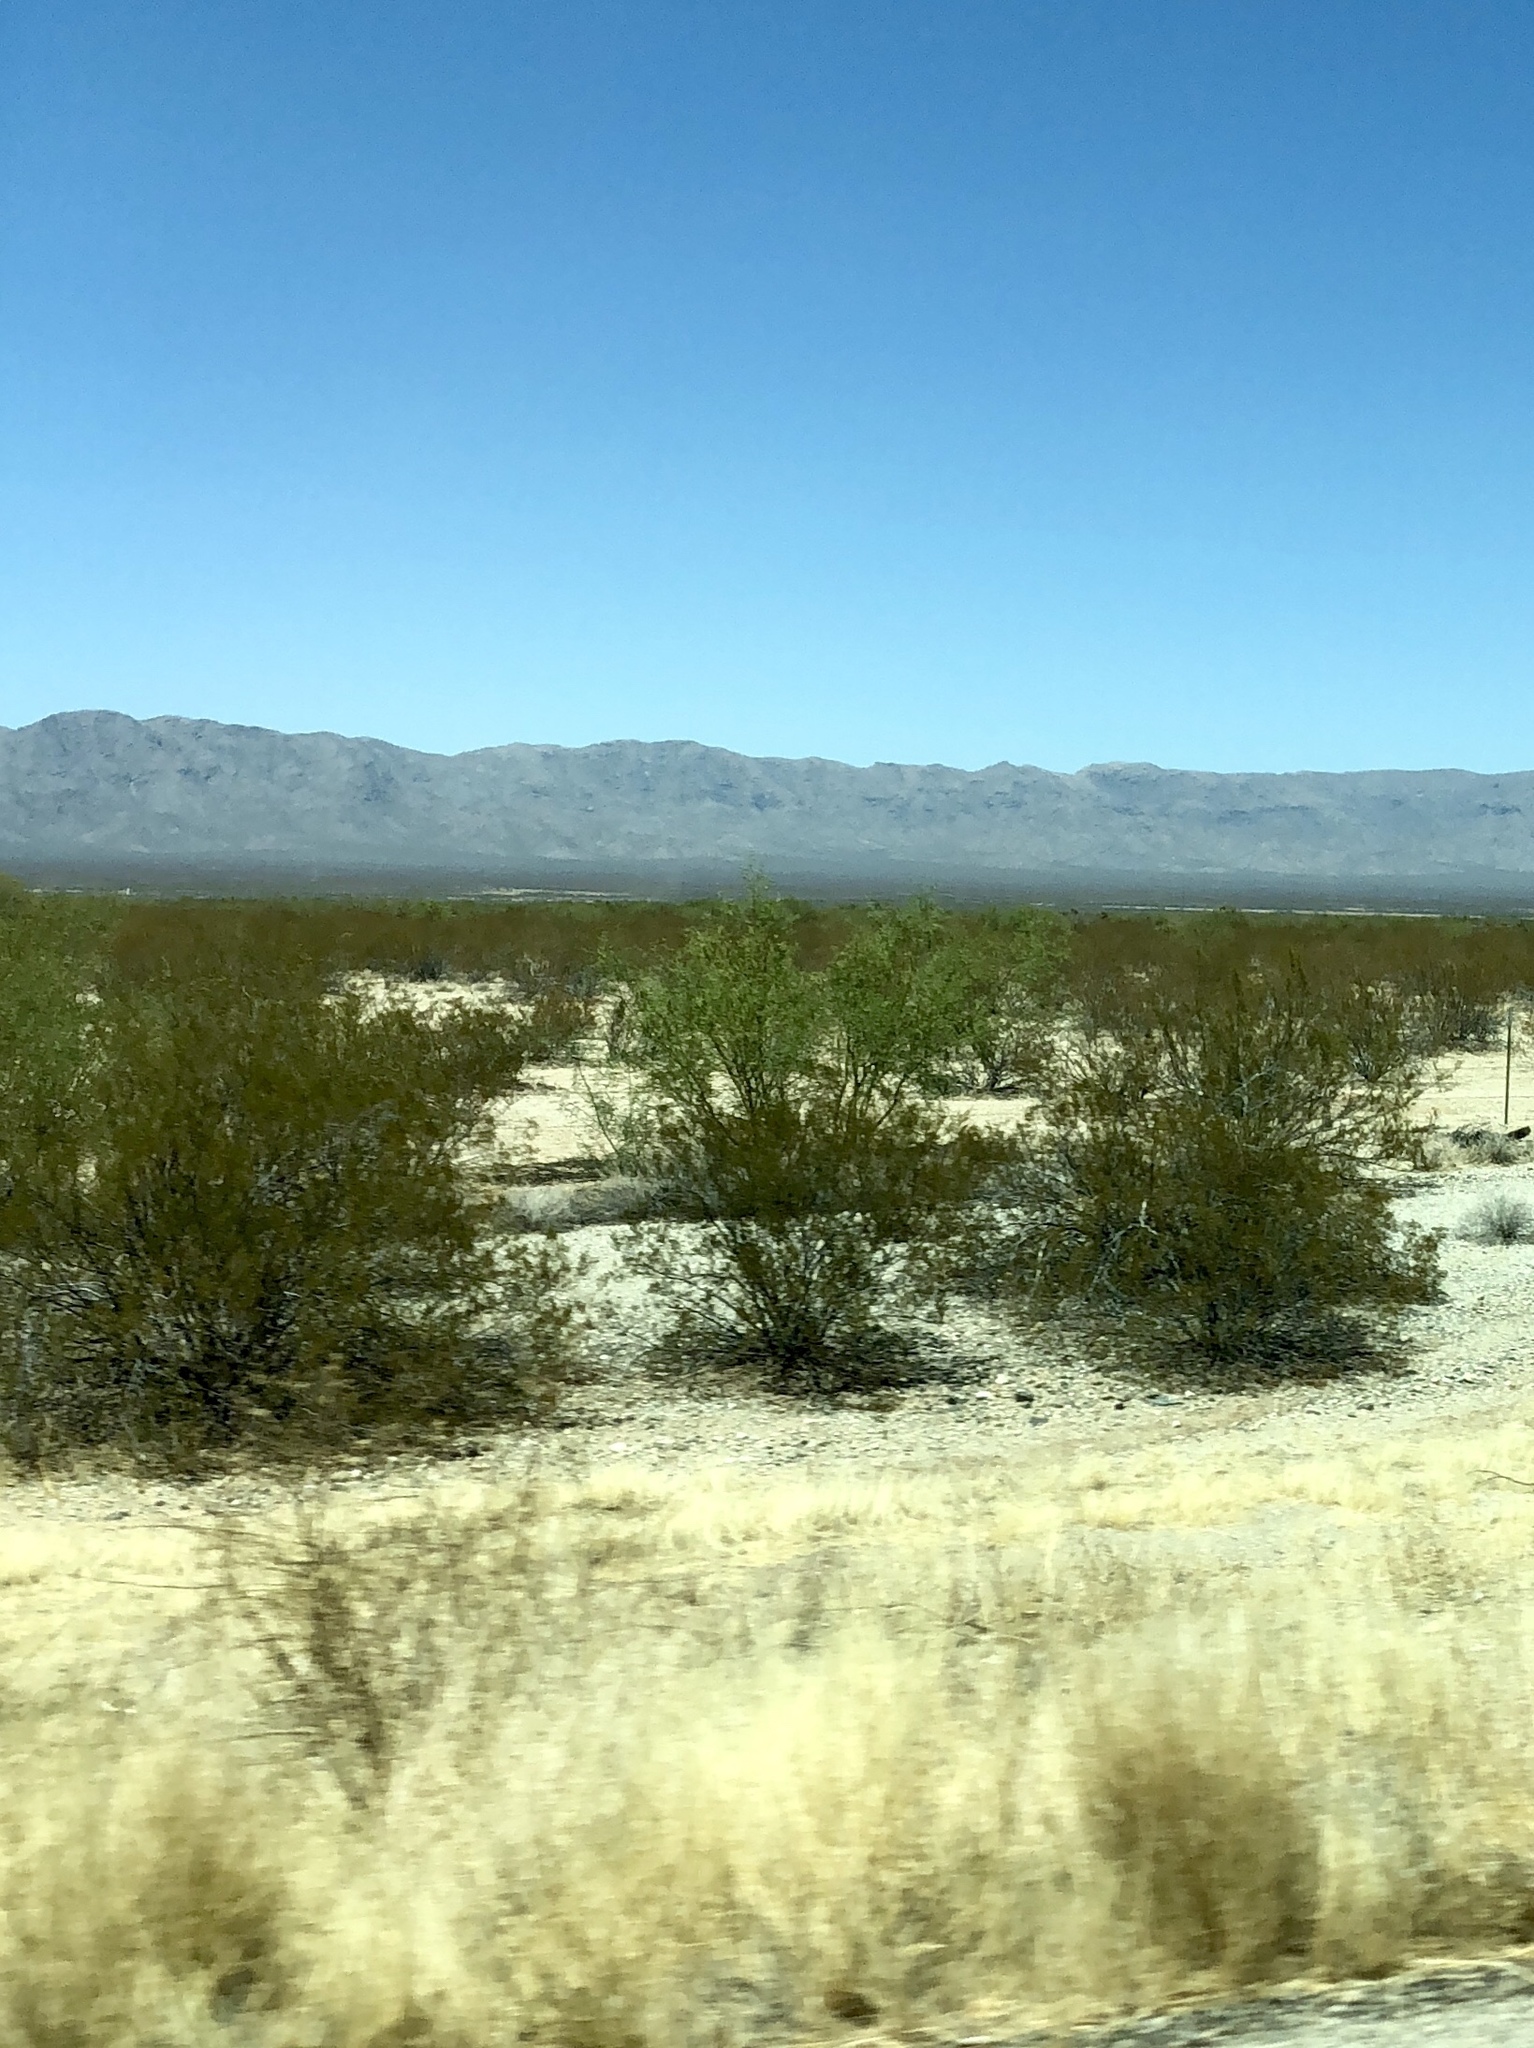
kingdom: Plantae
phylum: Tracheophyta
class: Magnoliopsida
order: Zygophyllales
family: Zygophyllaceae
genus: Larrea
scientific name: Larrea tridentata
